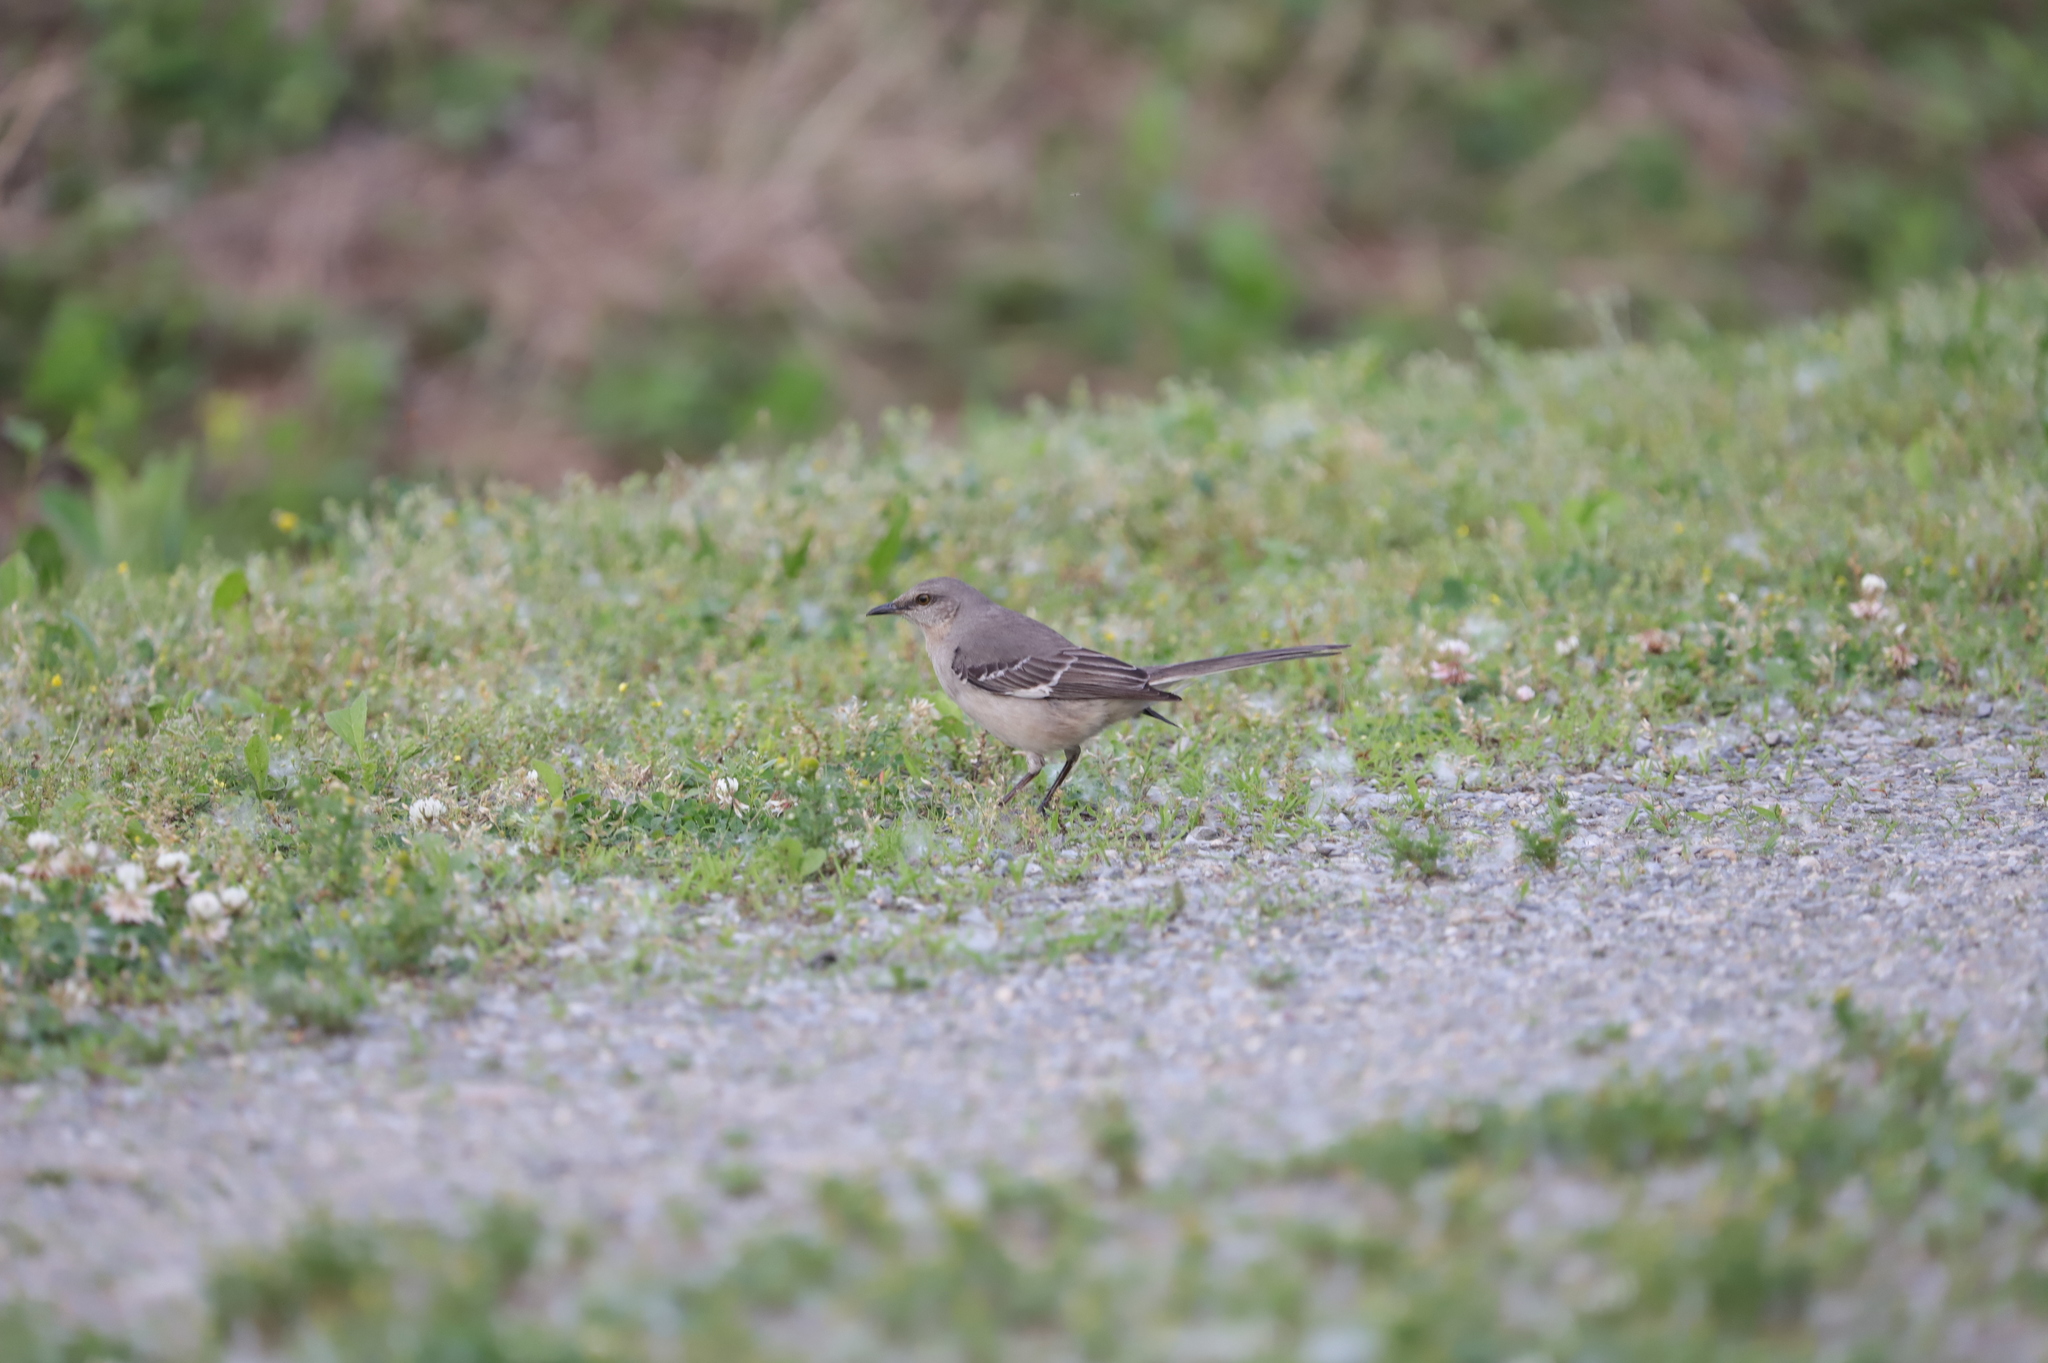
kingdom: Animalia
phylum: Chordata
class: Aves
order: Passeriformes
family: Mimidae
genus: Mimus
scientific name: Mimus polyglottos
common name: Northern mockingbird
